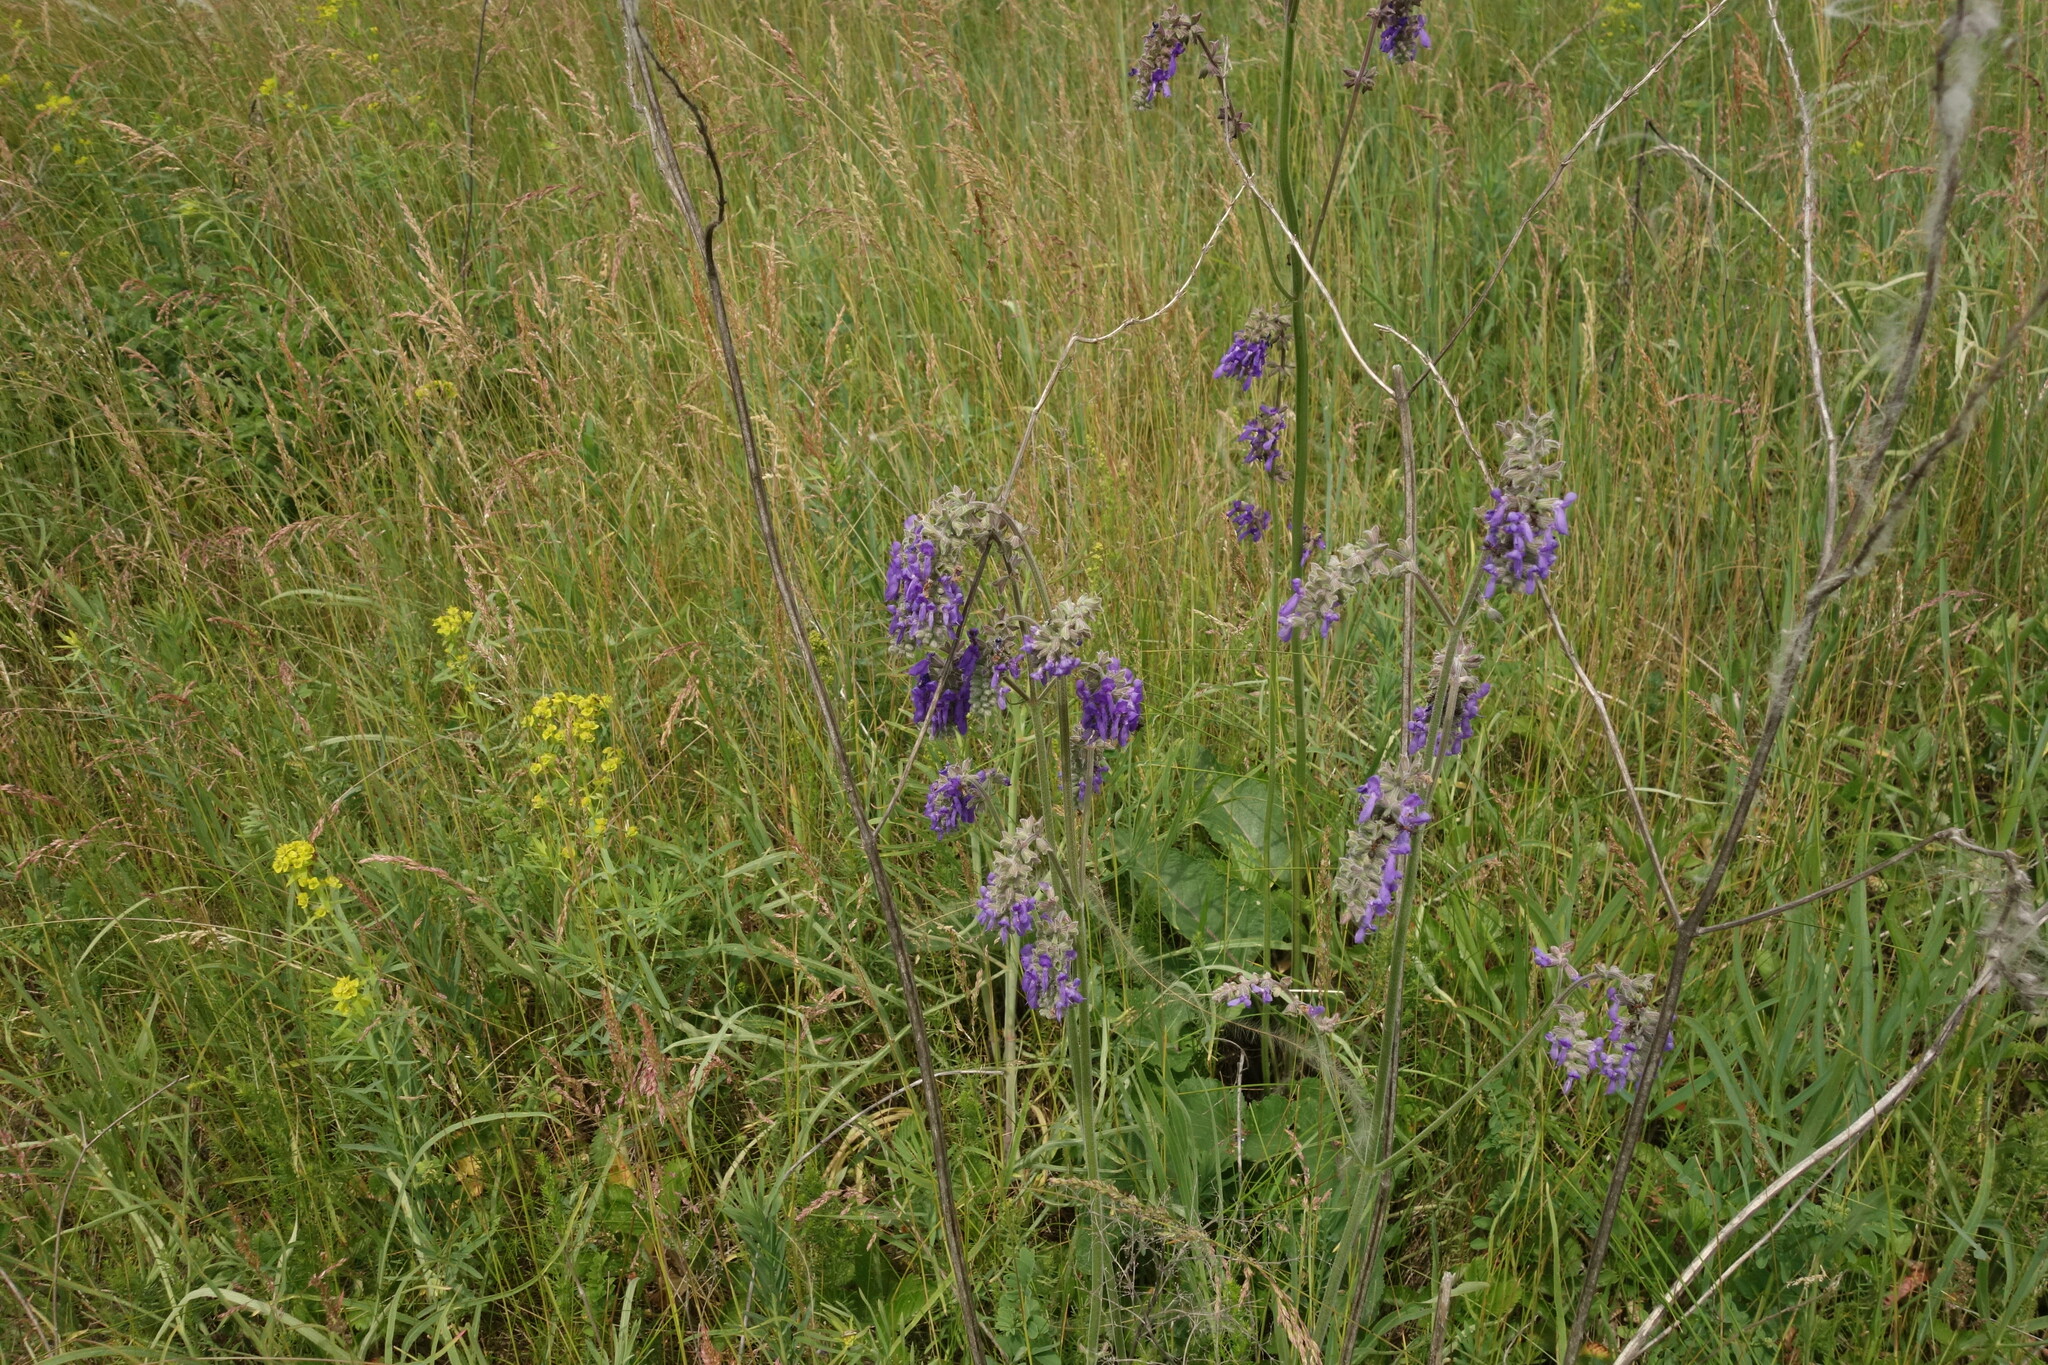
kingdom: Plantae
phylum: Tracheophyta
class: Magnoliopsida
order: Lamiales
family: Lamiaceae
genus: Salvia
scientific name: Salvia nutans
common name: Nodding sage
